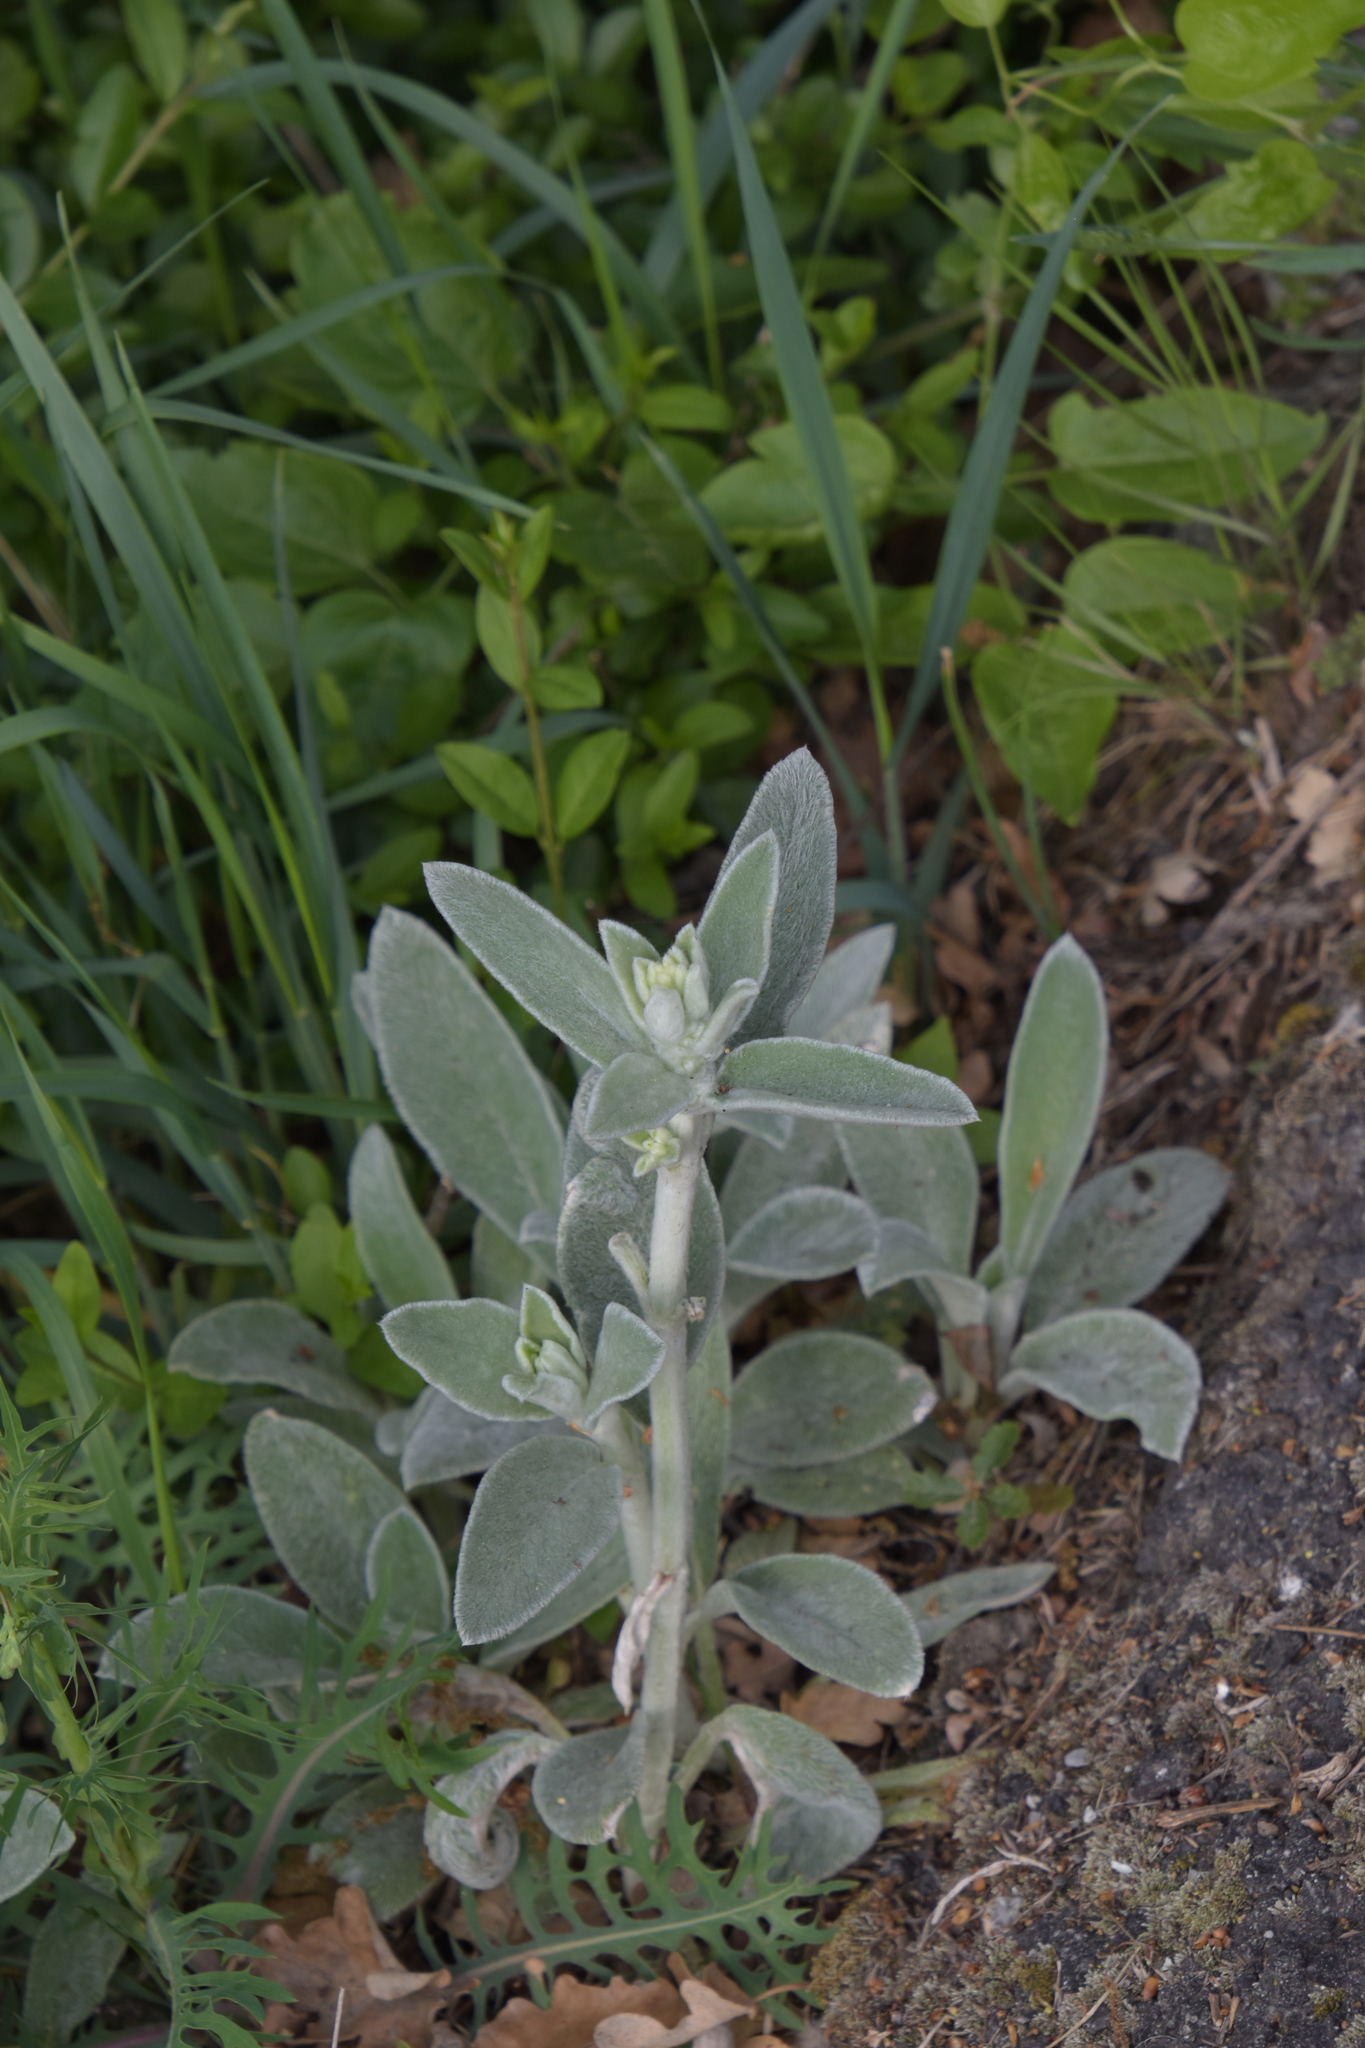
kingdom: Plantae
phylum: Tracheophyta
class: Magnoliopsida
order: Lamiales
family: Lamiaceae
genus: Stachys
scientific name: Stachys byzantina
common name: Lamb's-ear
